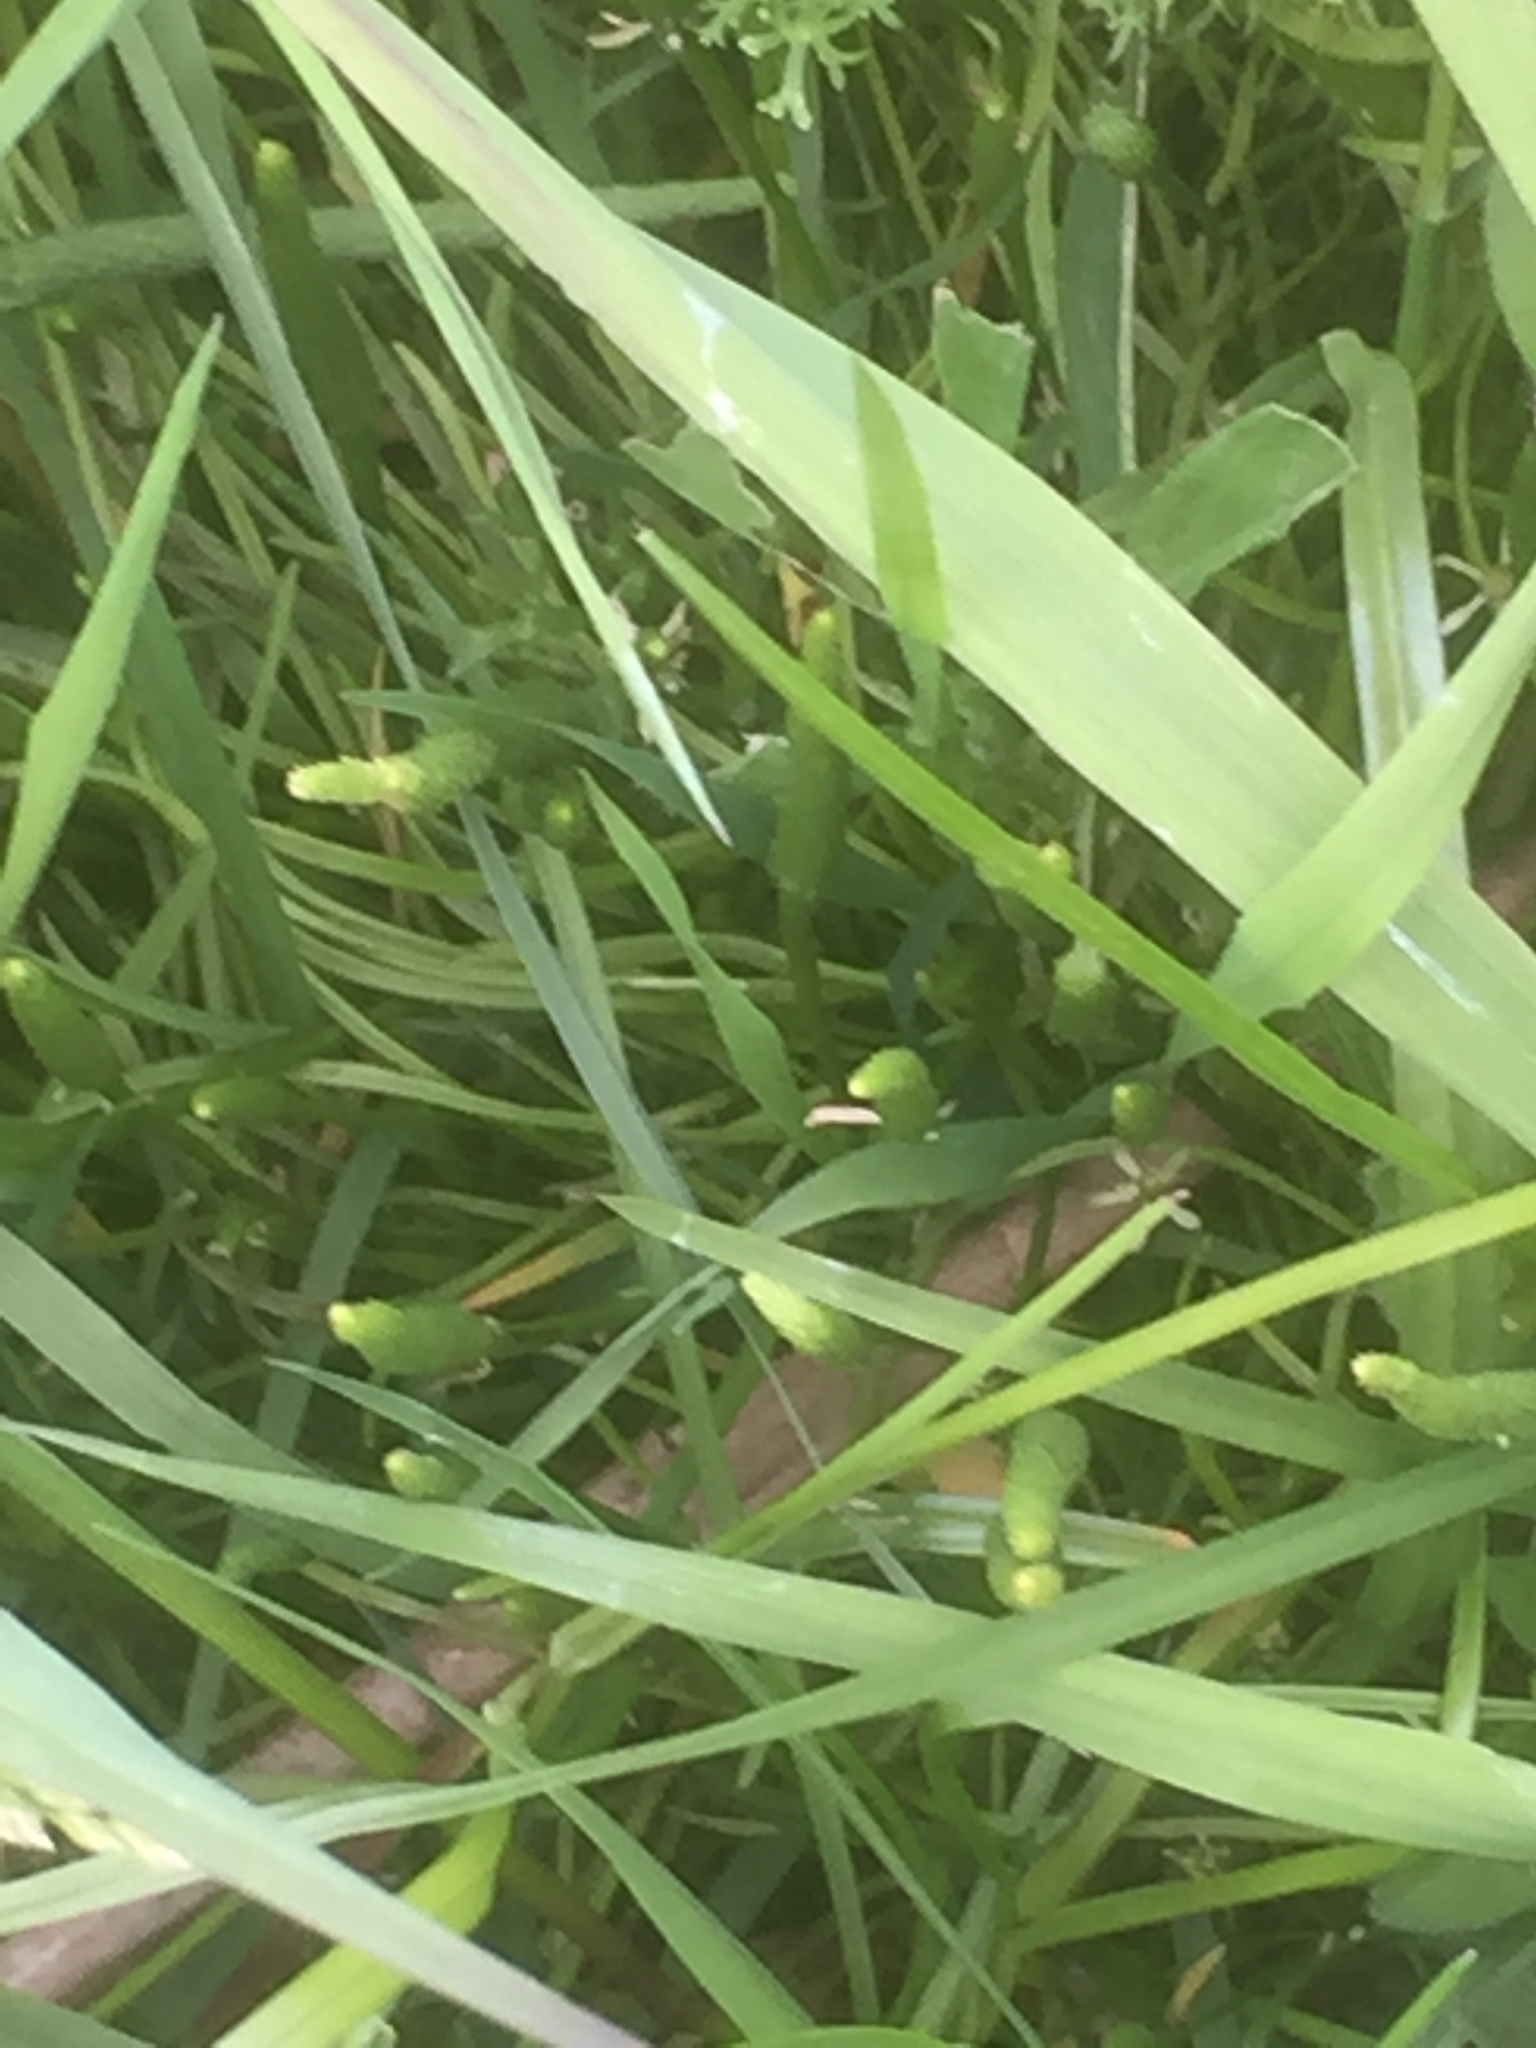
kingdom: Plantae
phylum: Tracheophyta
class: Magnoliopsida
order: Ranunculales
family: Ranunculaceae
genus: Myosurus
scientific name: Myosurus minimus
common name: Mousetail
